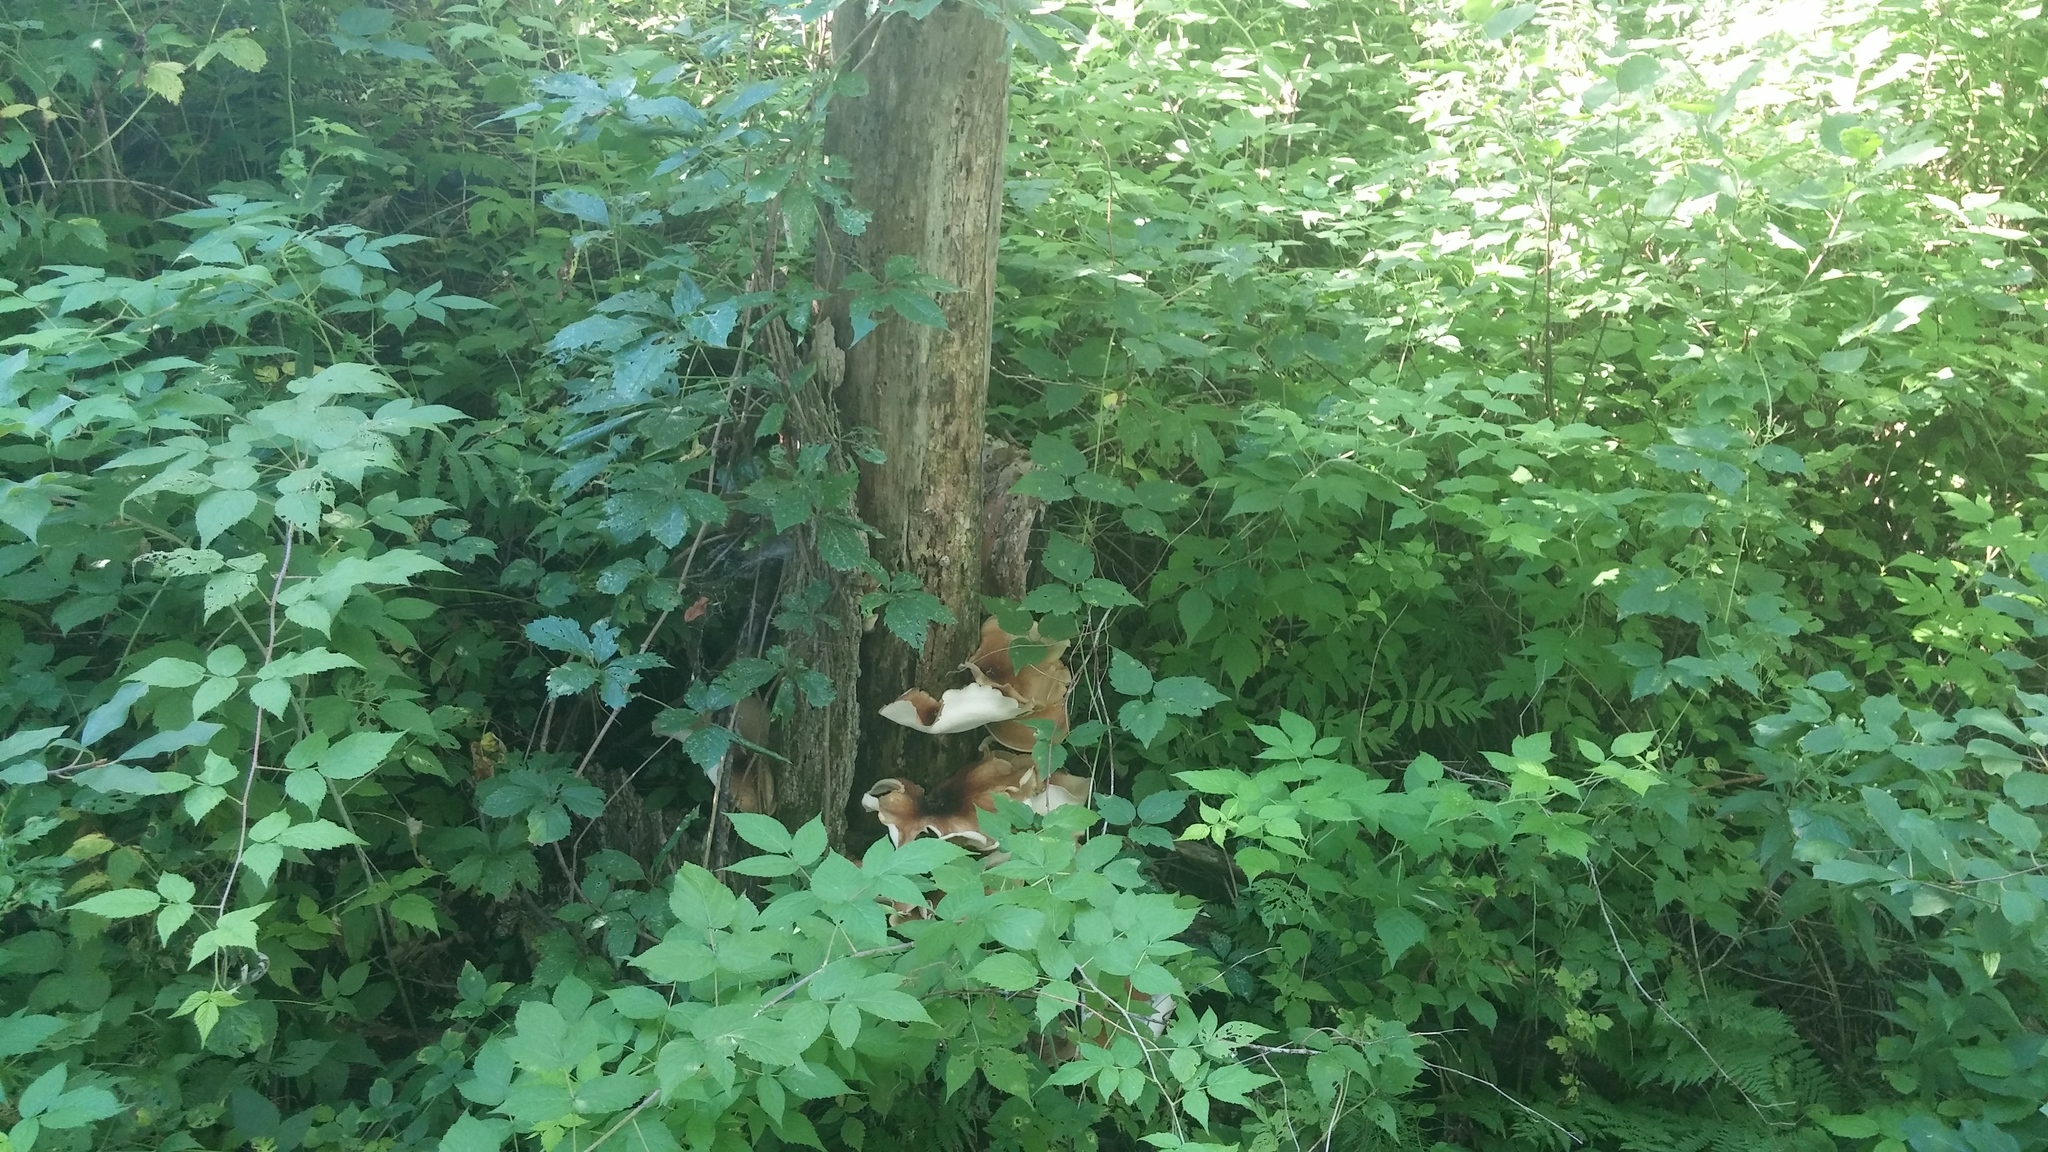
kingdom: Fungi
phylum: Basidiomycota
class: Agaricomycetes
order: Polyporales
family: Polyporaceae
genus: Picipes
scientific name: Picipes badius
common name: Bay polypore
